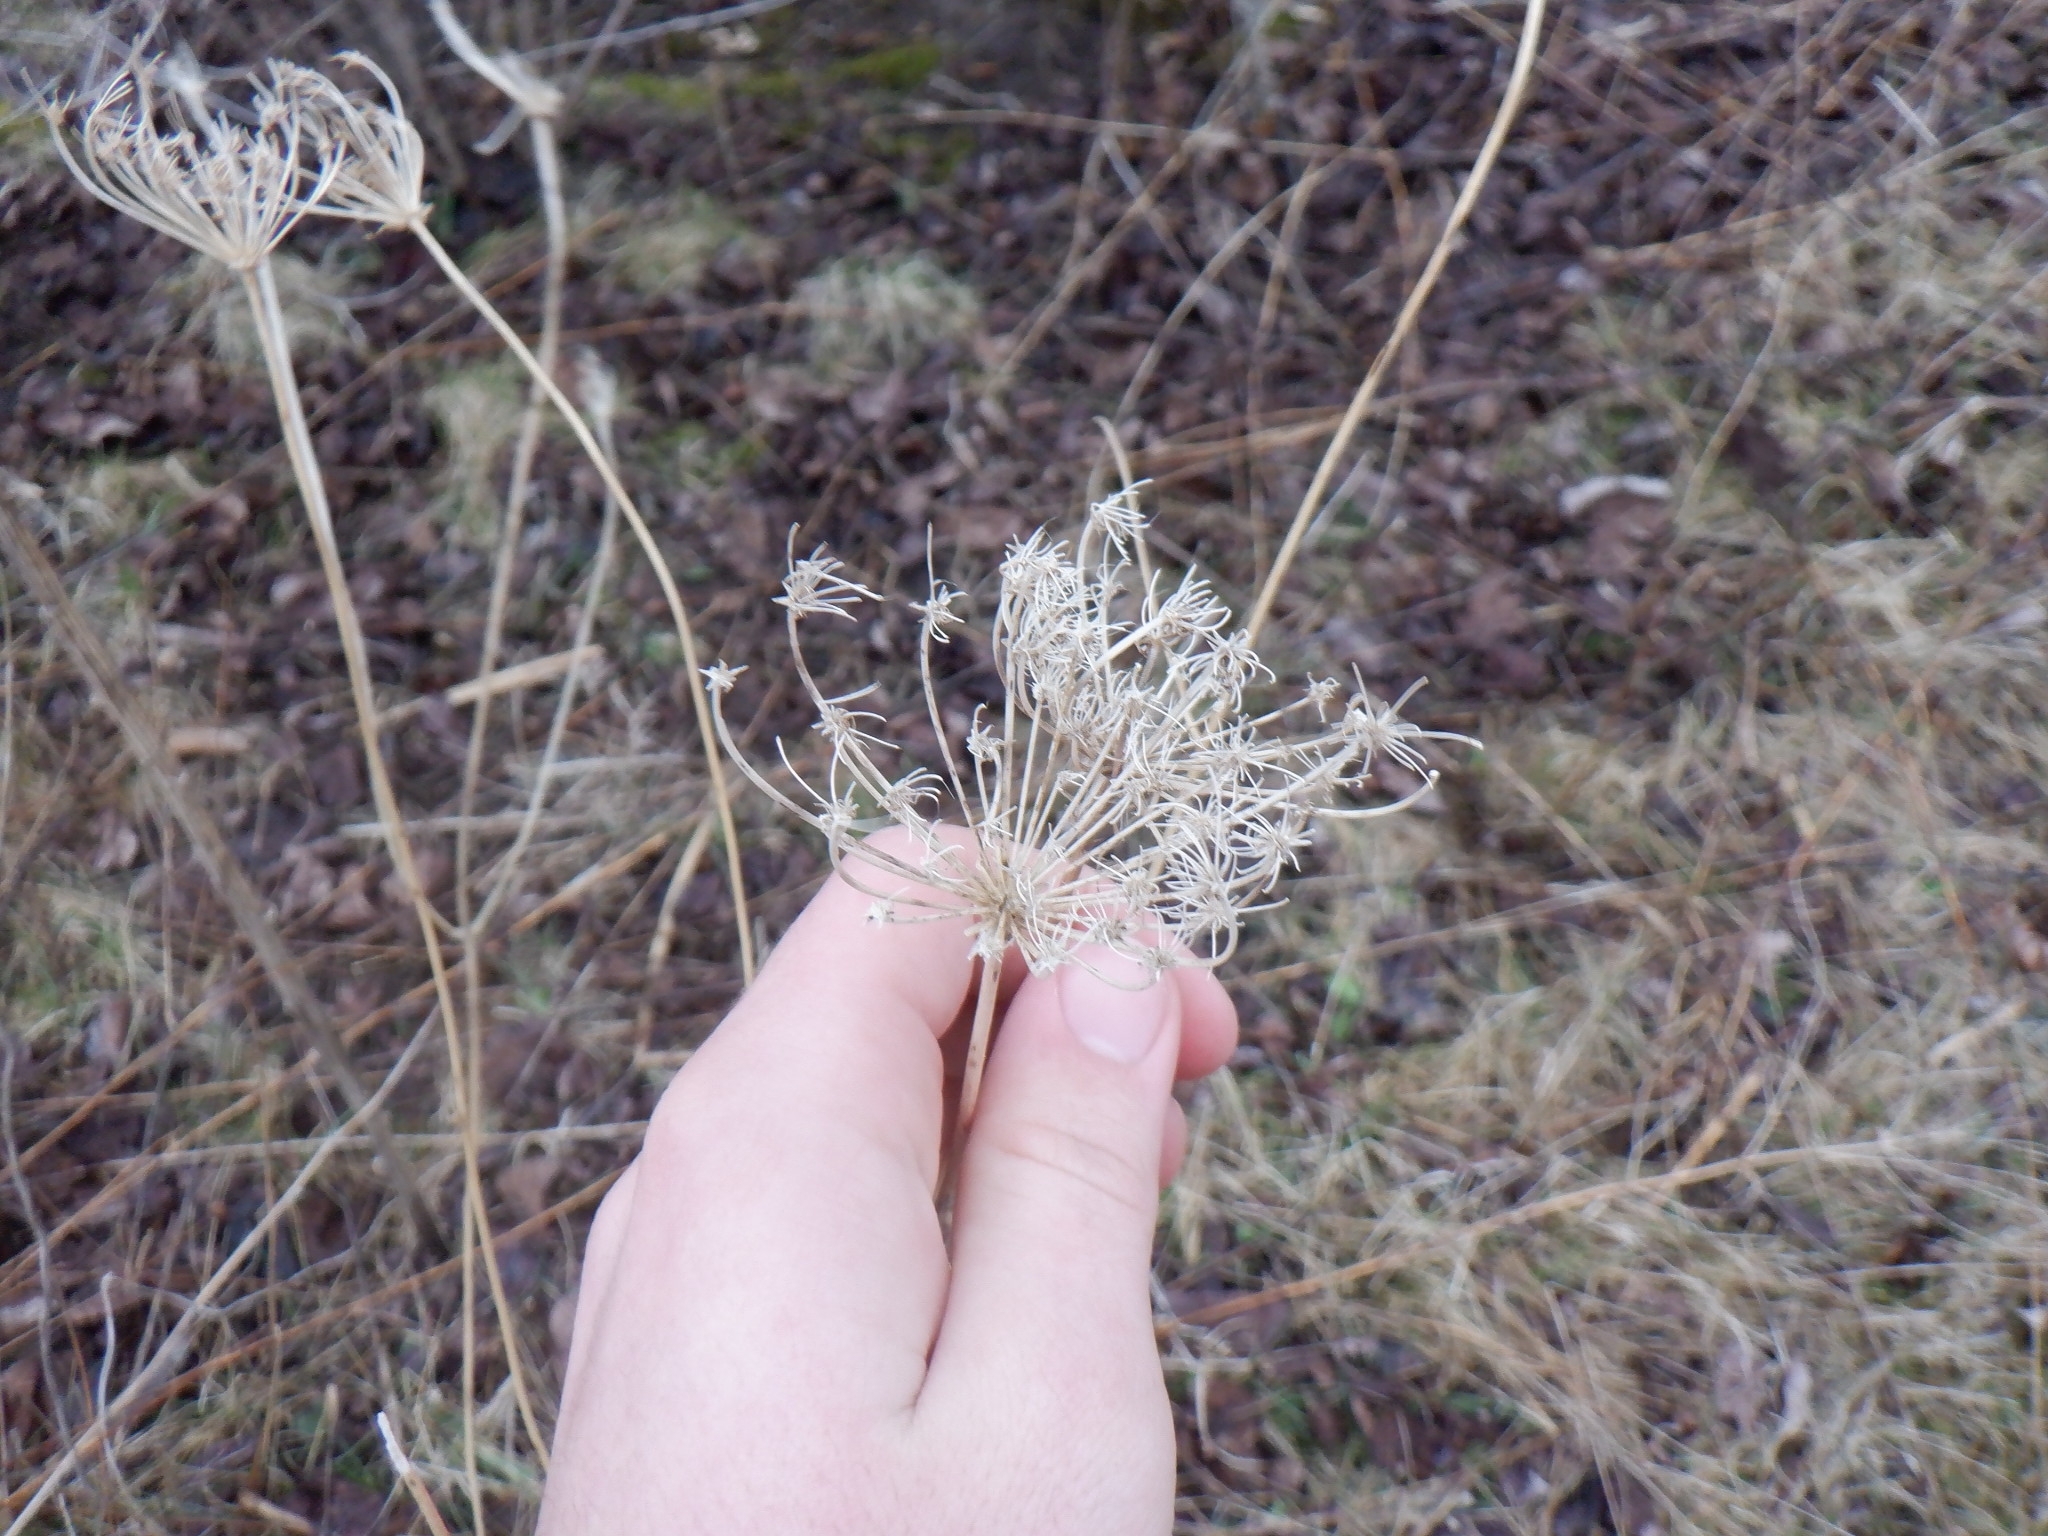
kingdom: Plantae
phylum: Tracheophyta
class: Magnoliopsida
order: Apiales
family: Apiaceae
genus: Daucus
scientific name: Daucus carota
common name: Wild carrot
